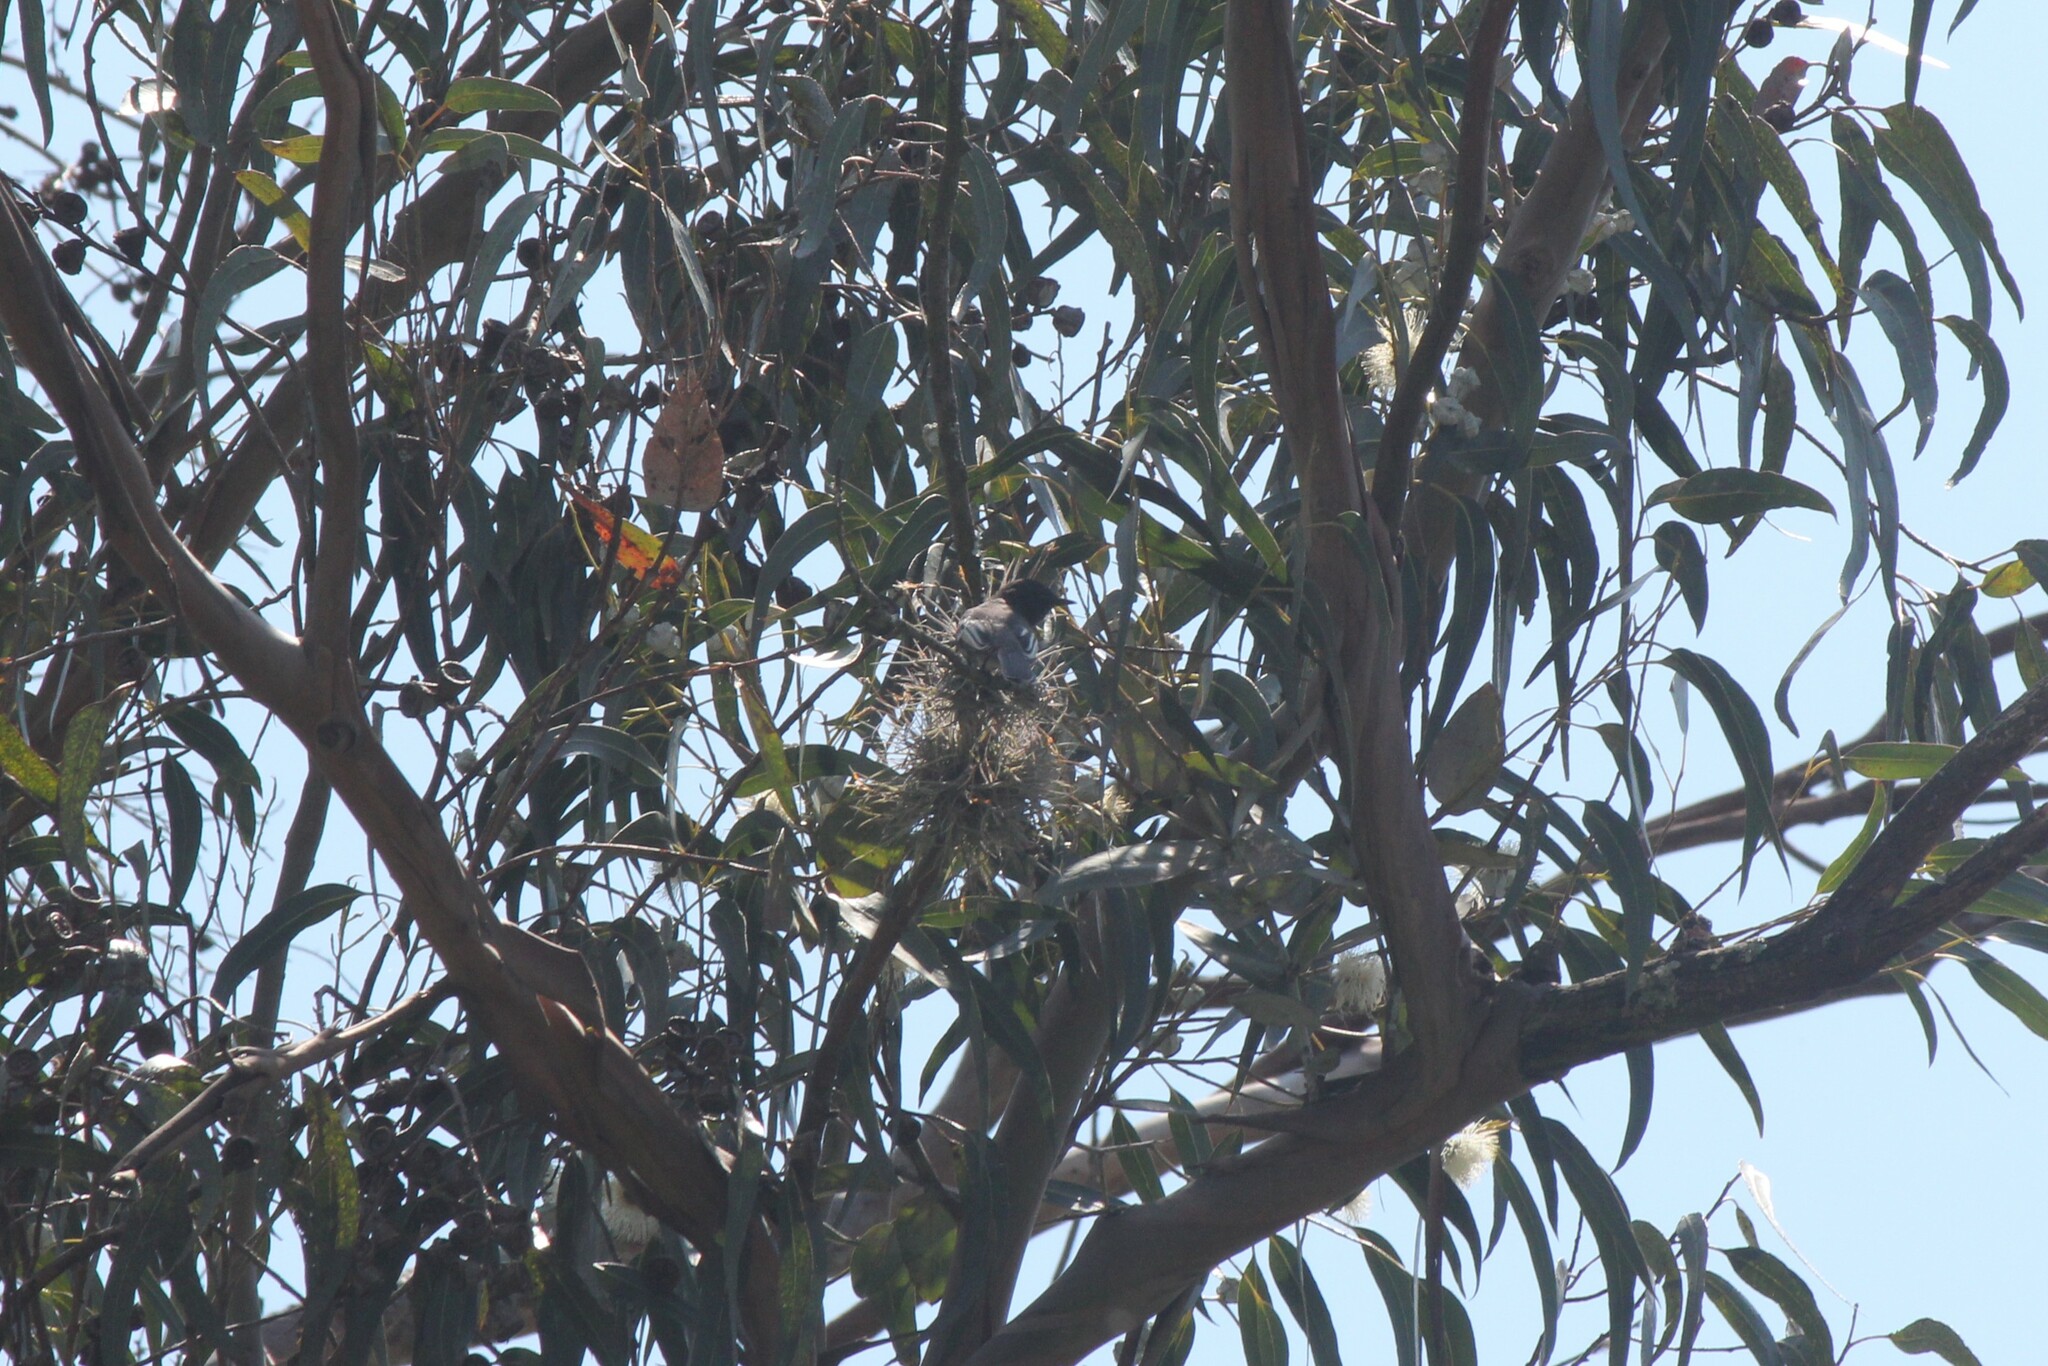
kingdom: Animalia
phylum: Chordata
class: Aves
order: Passeriformes
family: Tyrannidae
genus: Sayornis
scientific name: Sayornis nigricans
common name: Black phoebe
